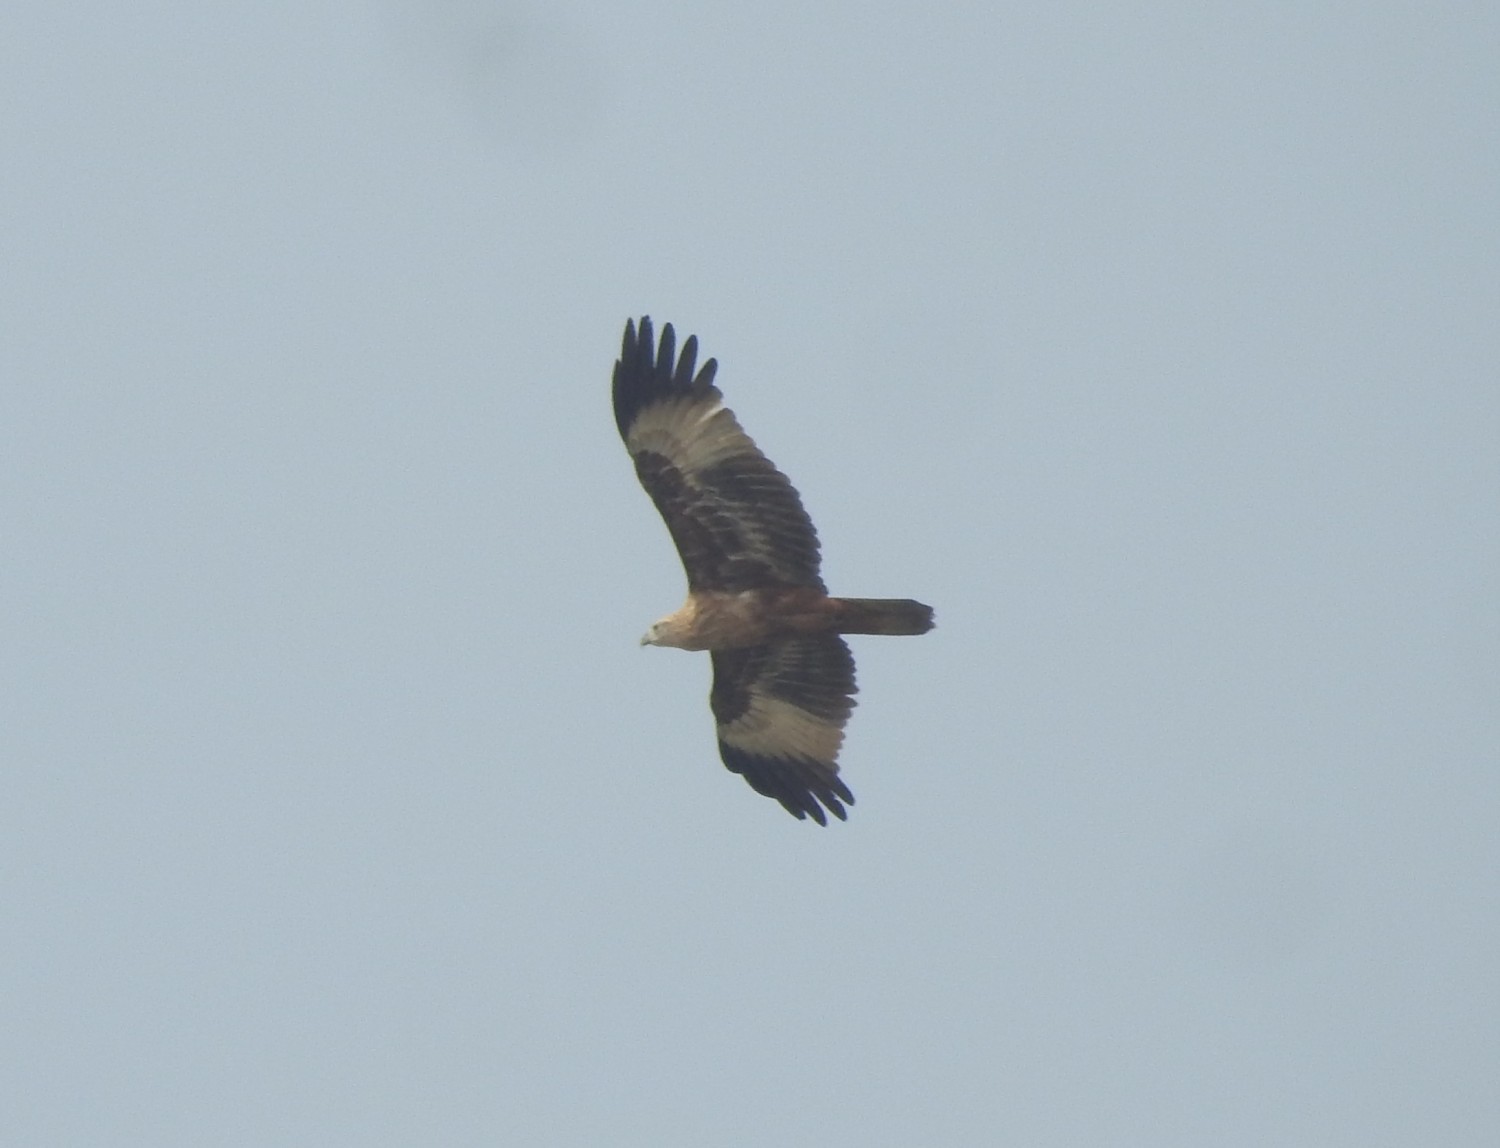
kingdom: Animalia
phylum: Chordata
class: Aves
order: Accipitriformes
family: Accipitridae
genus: Haliastur
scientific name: Haliastur indus
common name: Brahminy kite
